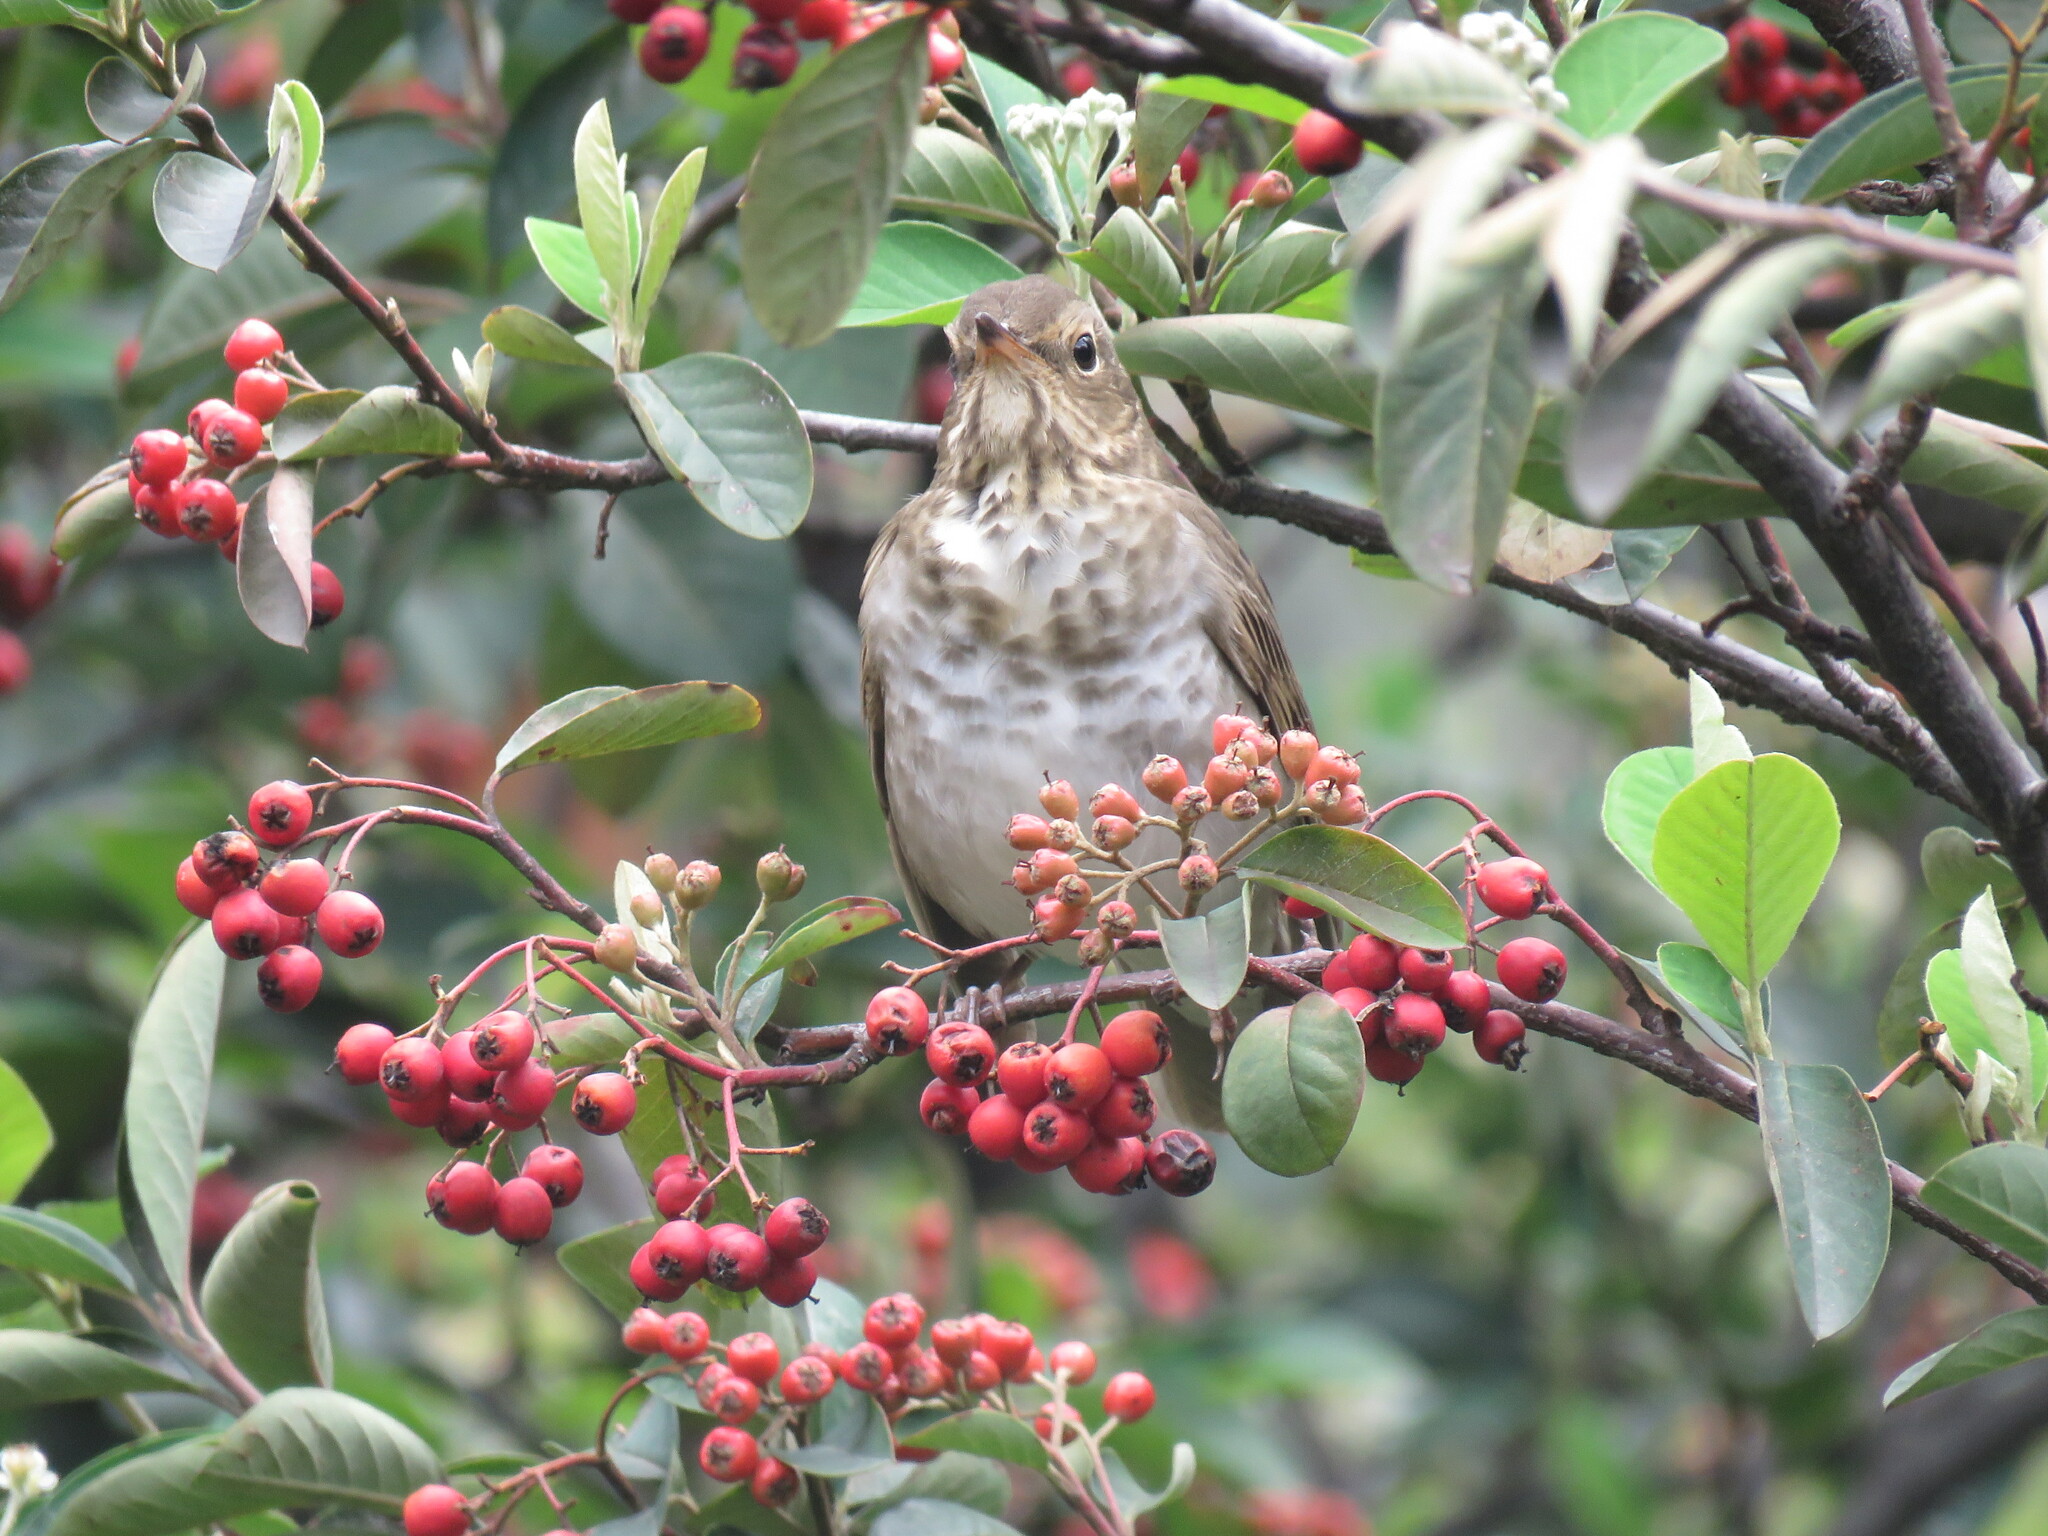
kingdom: Animalia
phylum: Chordata
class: Aves
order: Passeriformes
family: Turdidae
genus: Catharus
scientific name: Catharus ustulatus
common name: Swainson's thrush
